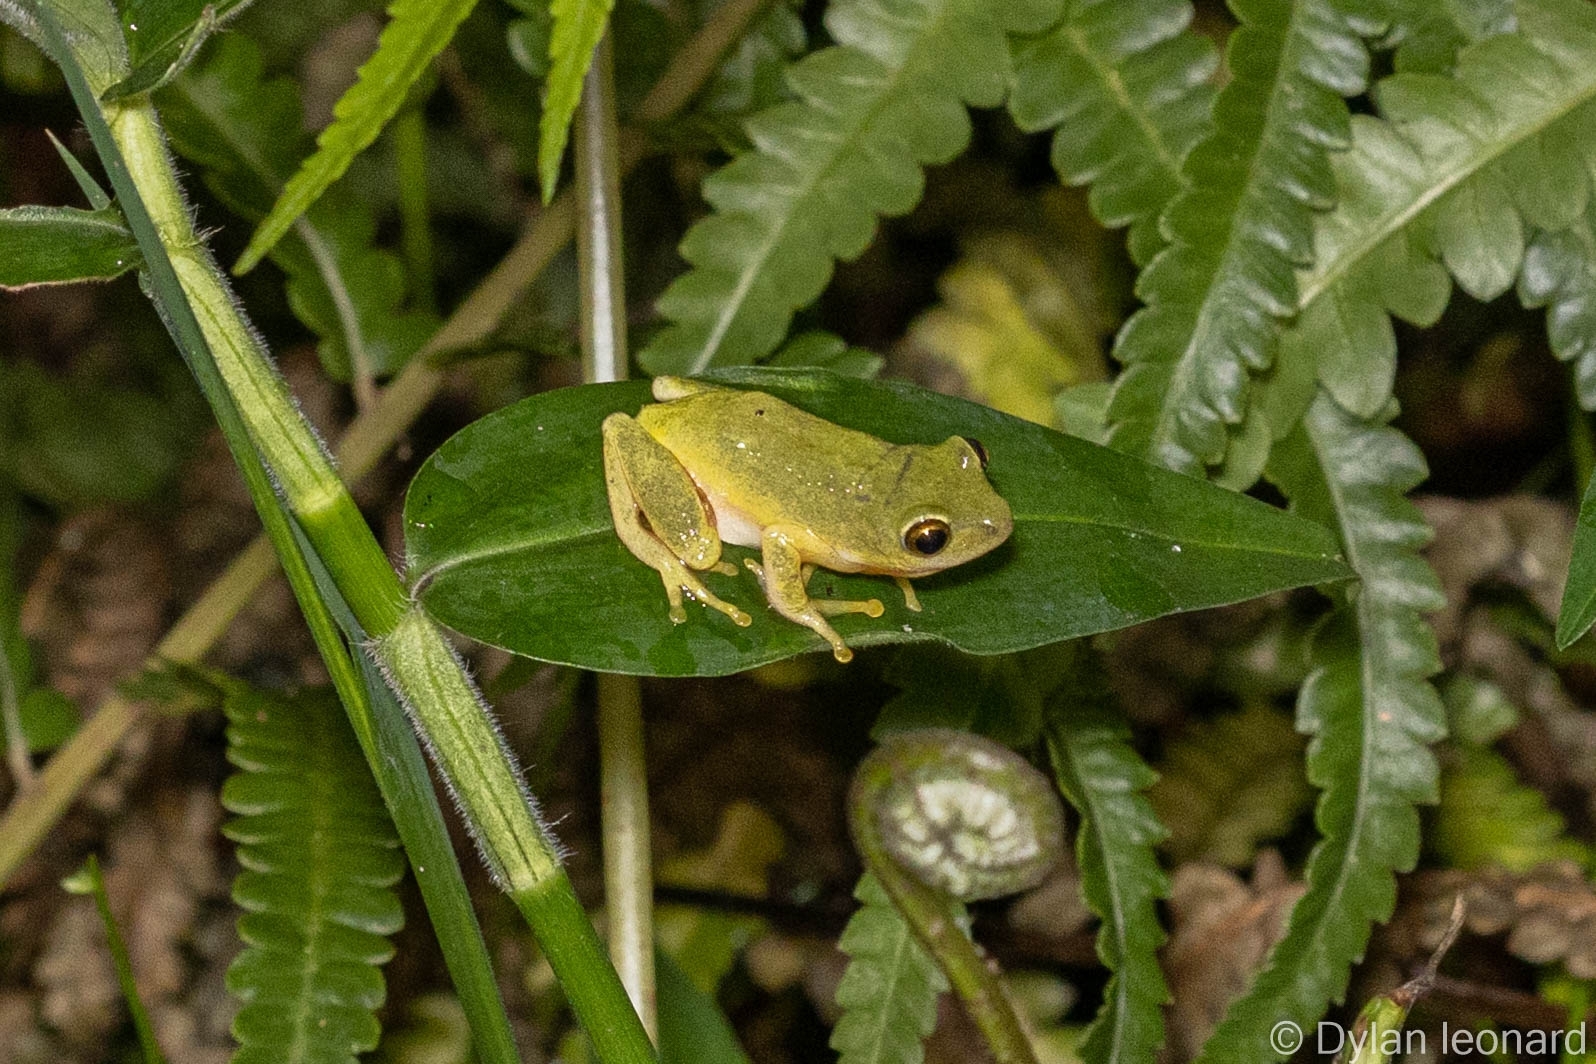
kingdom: Animalia
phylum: Chordata
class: Amphibia
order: Anura
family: Hyperoliidae
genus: Hyperolius
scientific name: Hyperolius tuberilinguis
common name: Tinker reed frog
